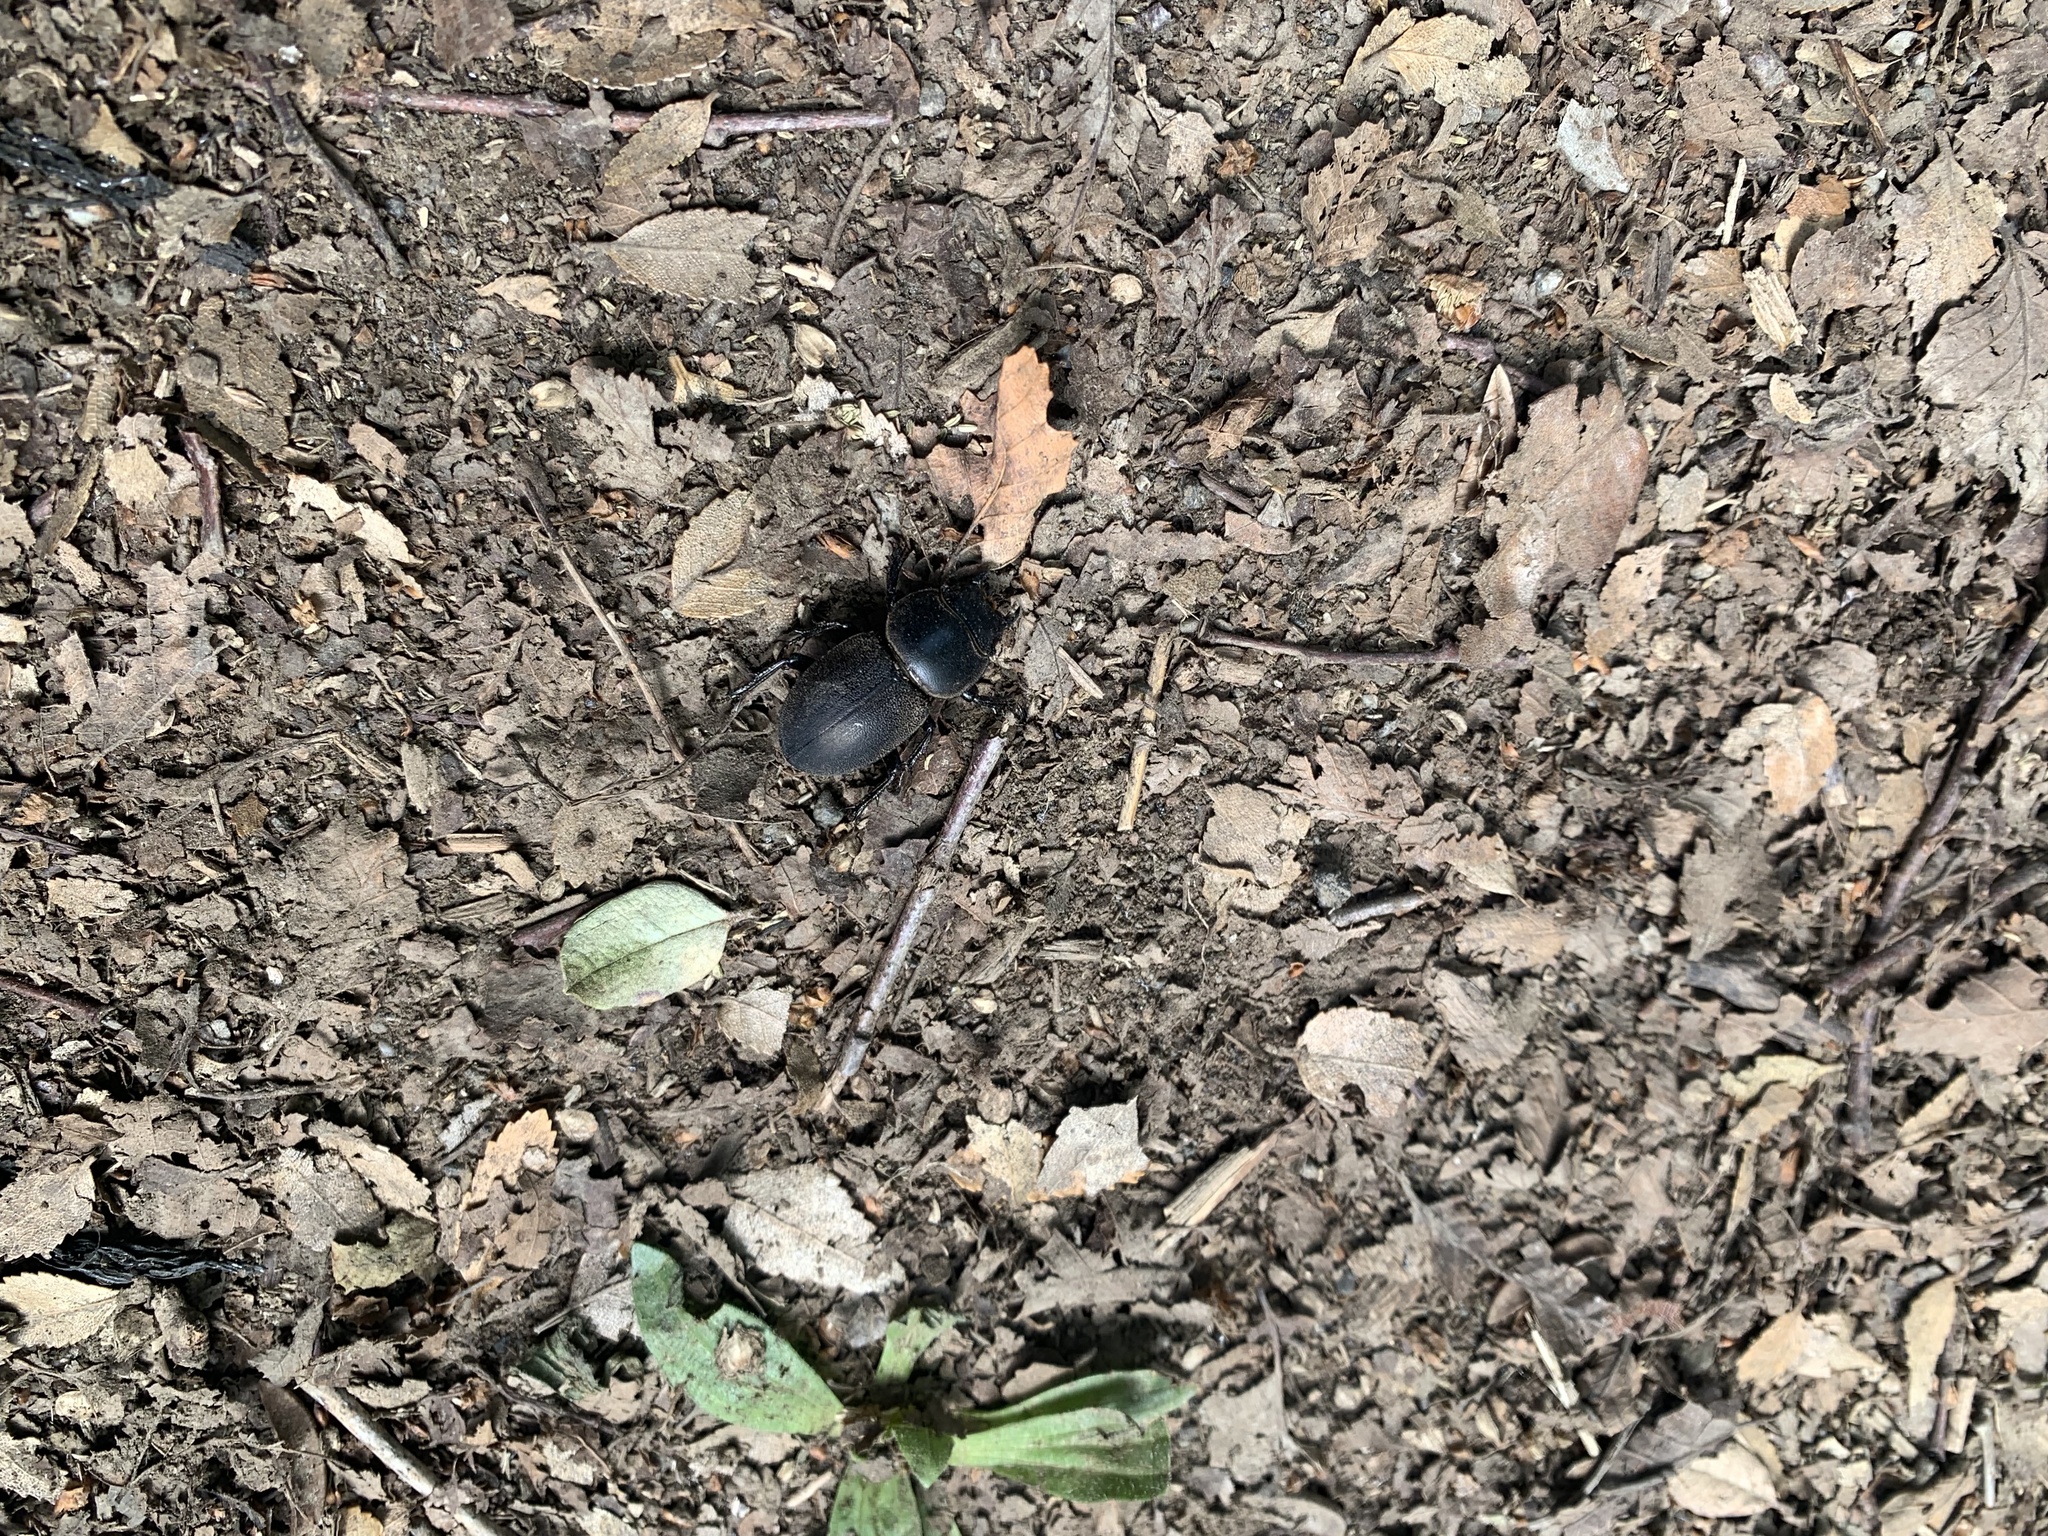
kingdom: Animalia
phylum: Arthropoda
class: Insecta
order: Coleoptera
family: Lucanidae
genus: Apterodorcus
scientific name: Apterodorcus bacchus
